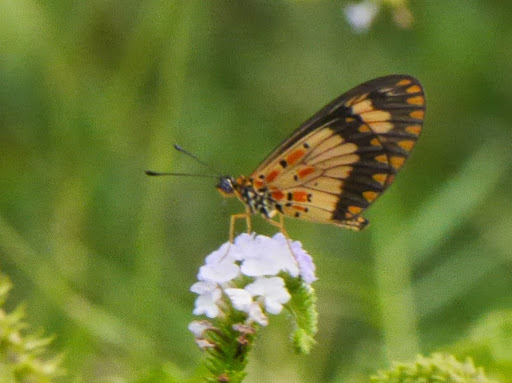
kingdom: Animalia
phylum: Arthropoda
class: Insecta
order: Lepidoptera
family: Nymphalidae
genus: Acraea
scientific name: Acraea Telchinia acerata
